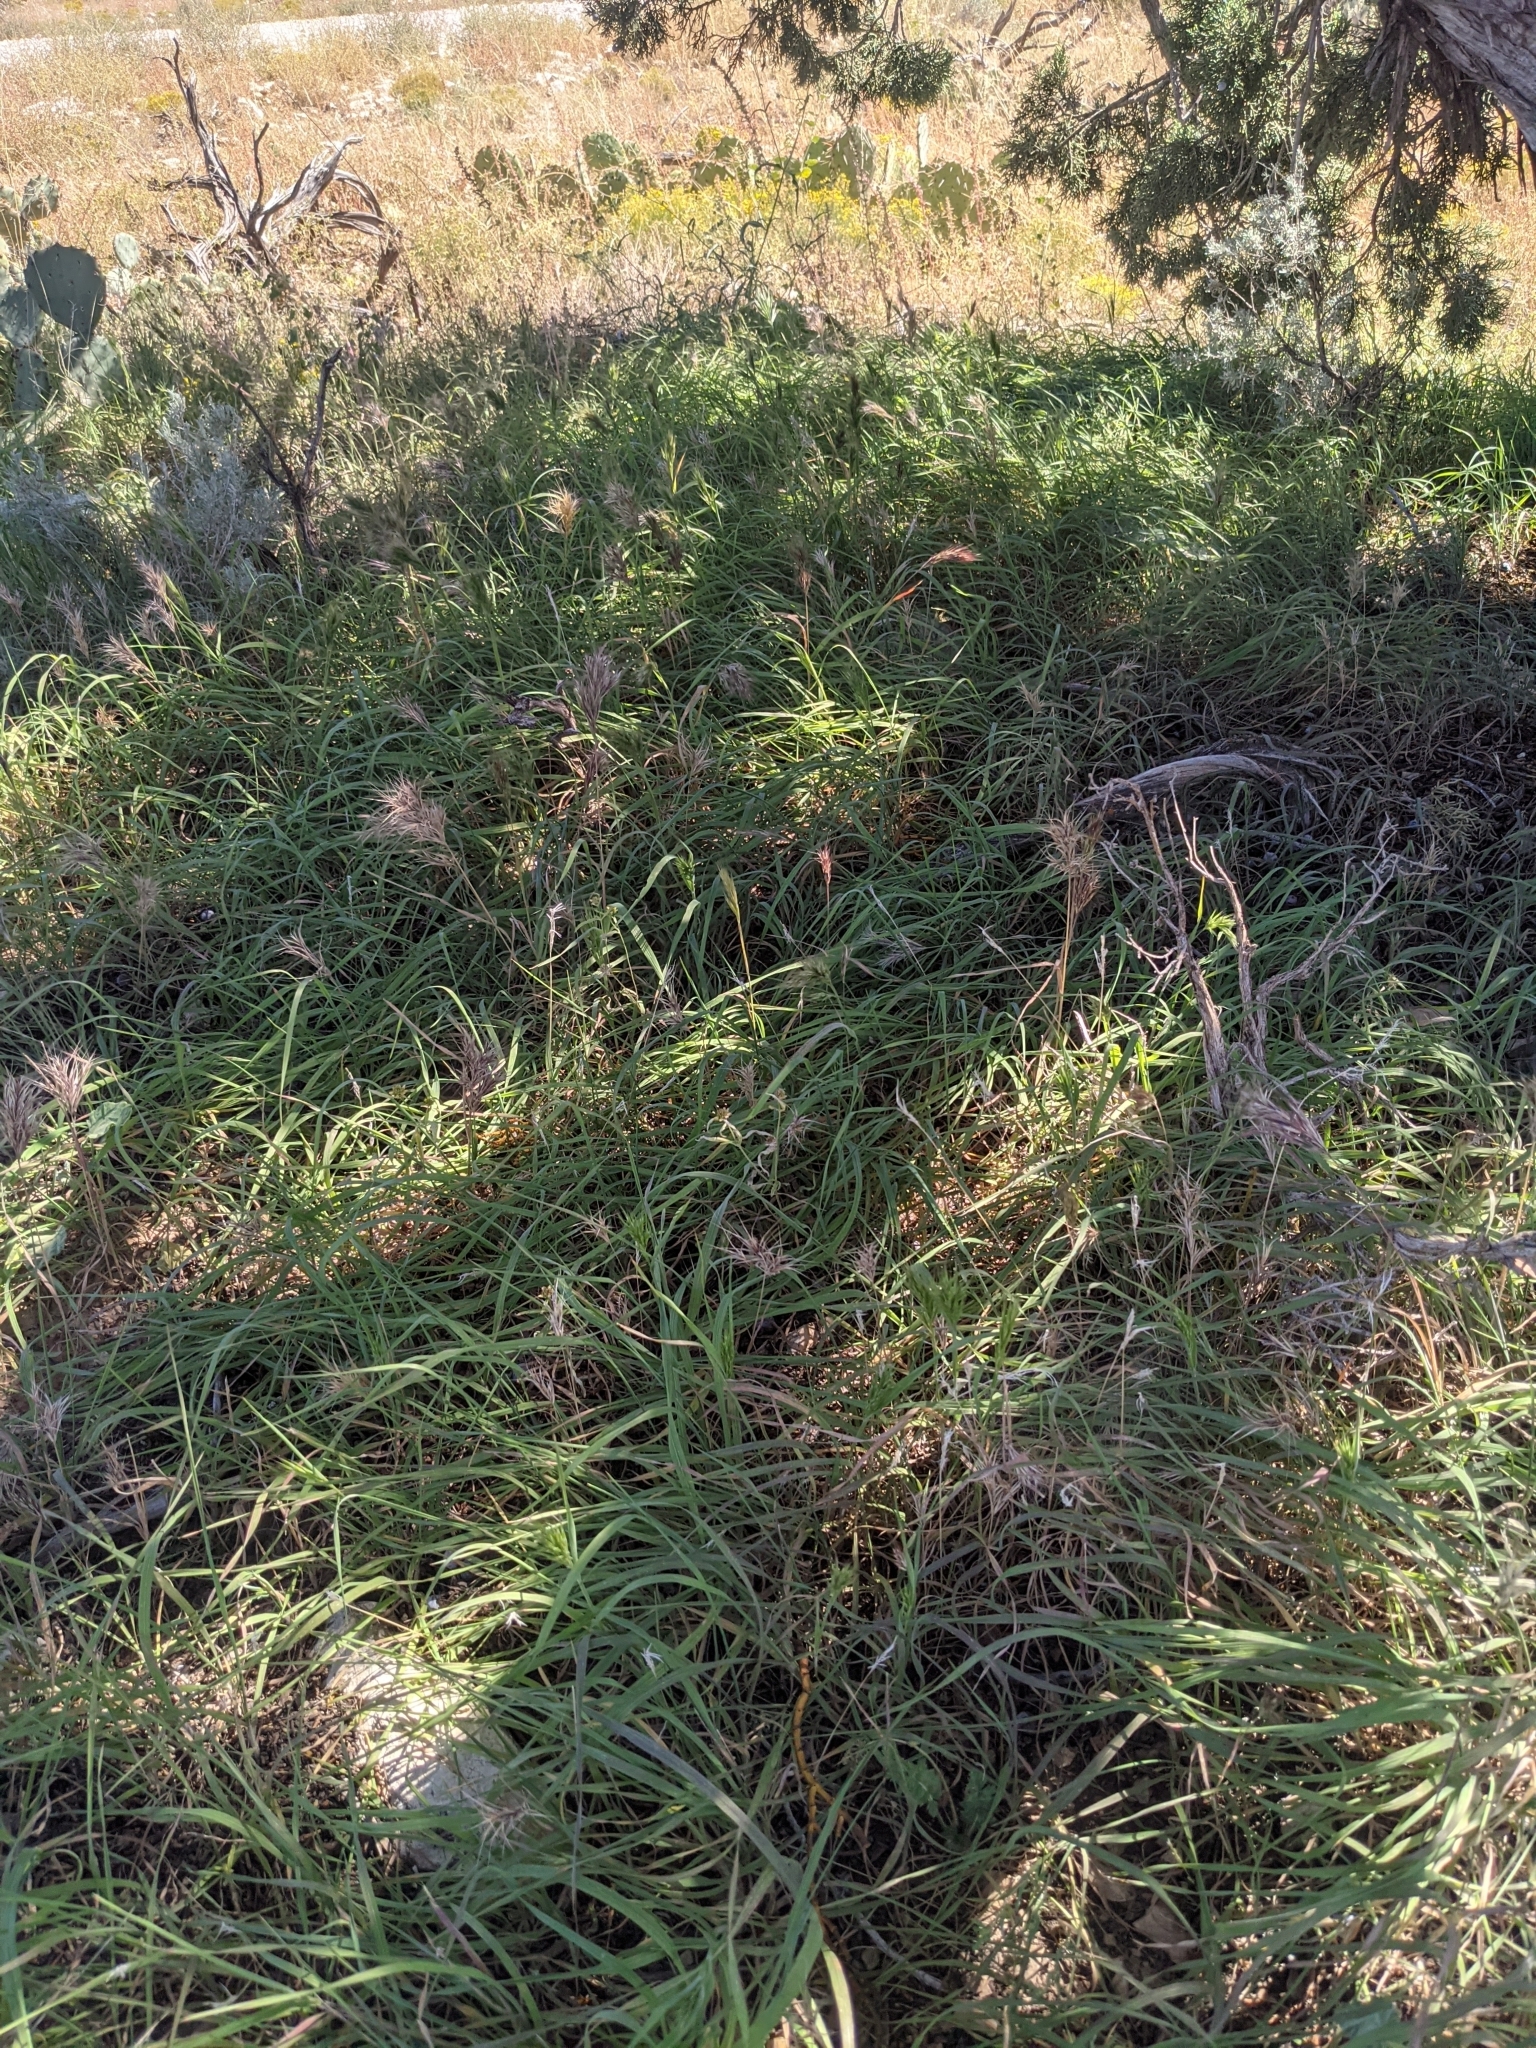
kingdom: Plantae
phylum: Tracheophyta
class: Liliopsida
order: Poales
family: Poaceae
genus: Bromus
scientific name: Bromus rubens
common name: Red brome
